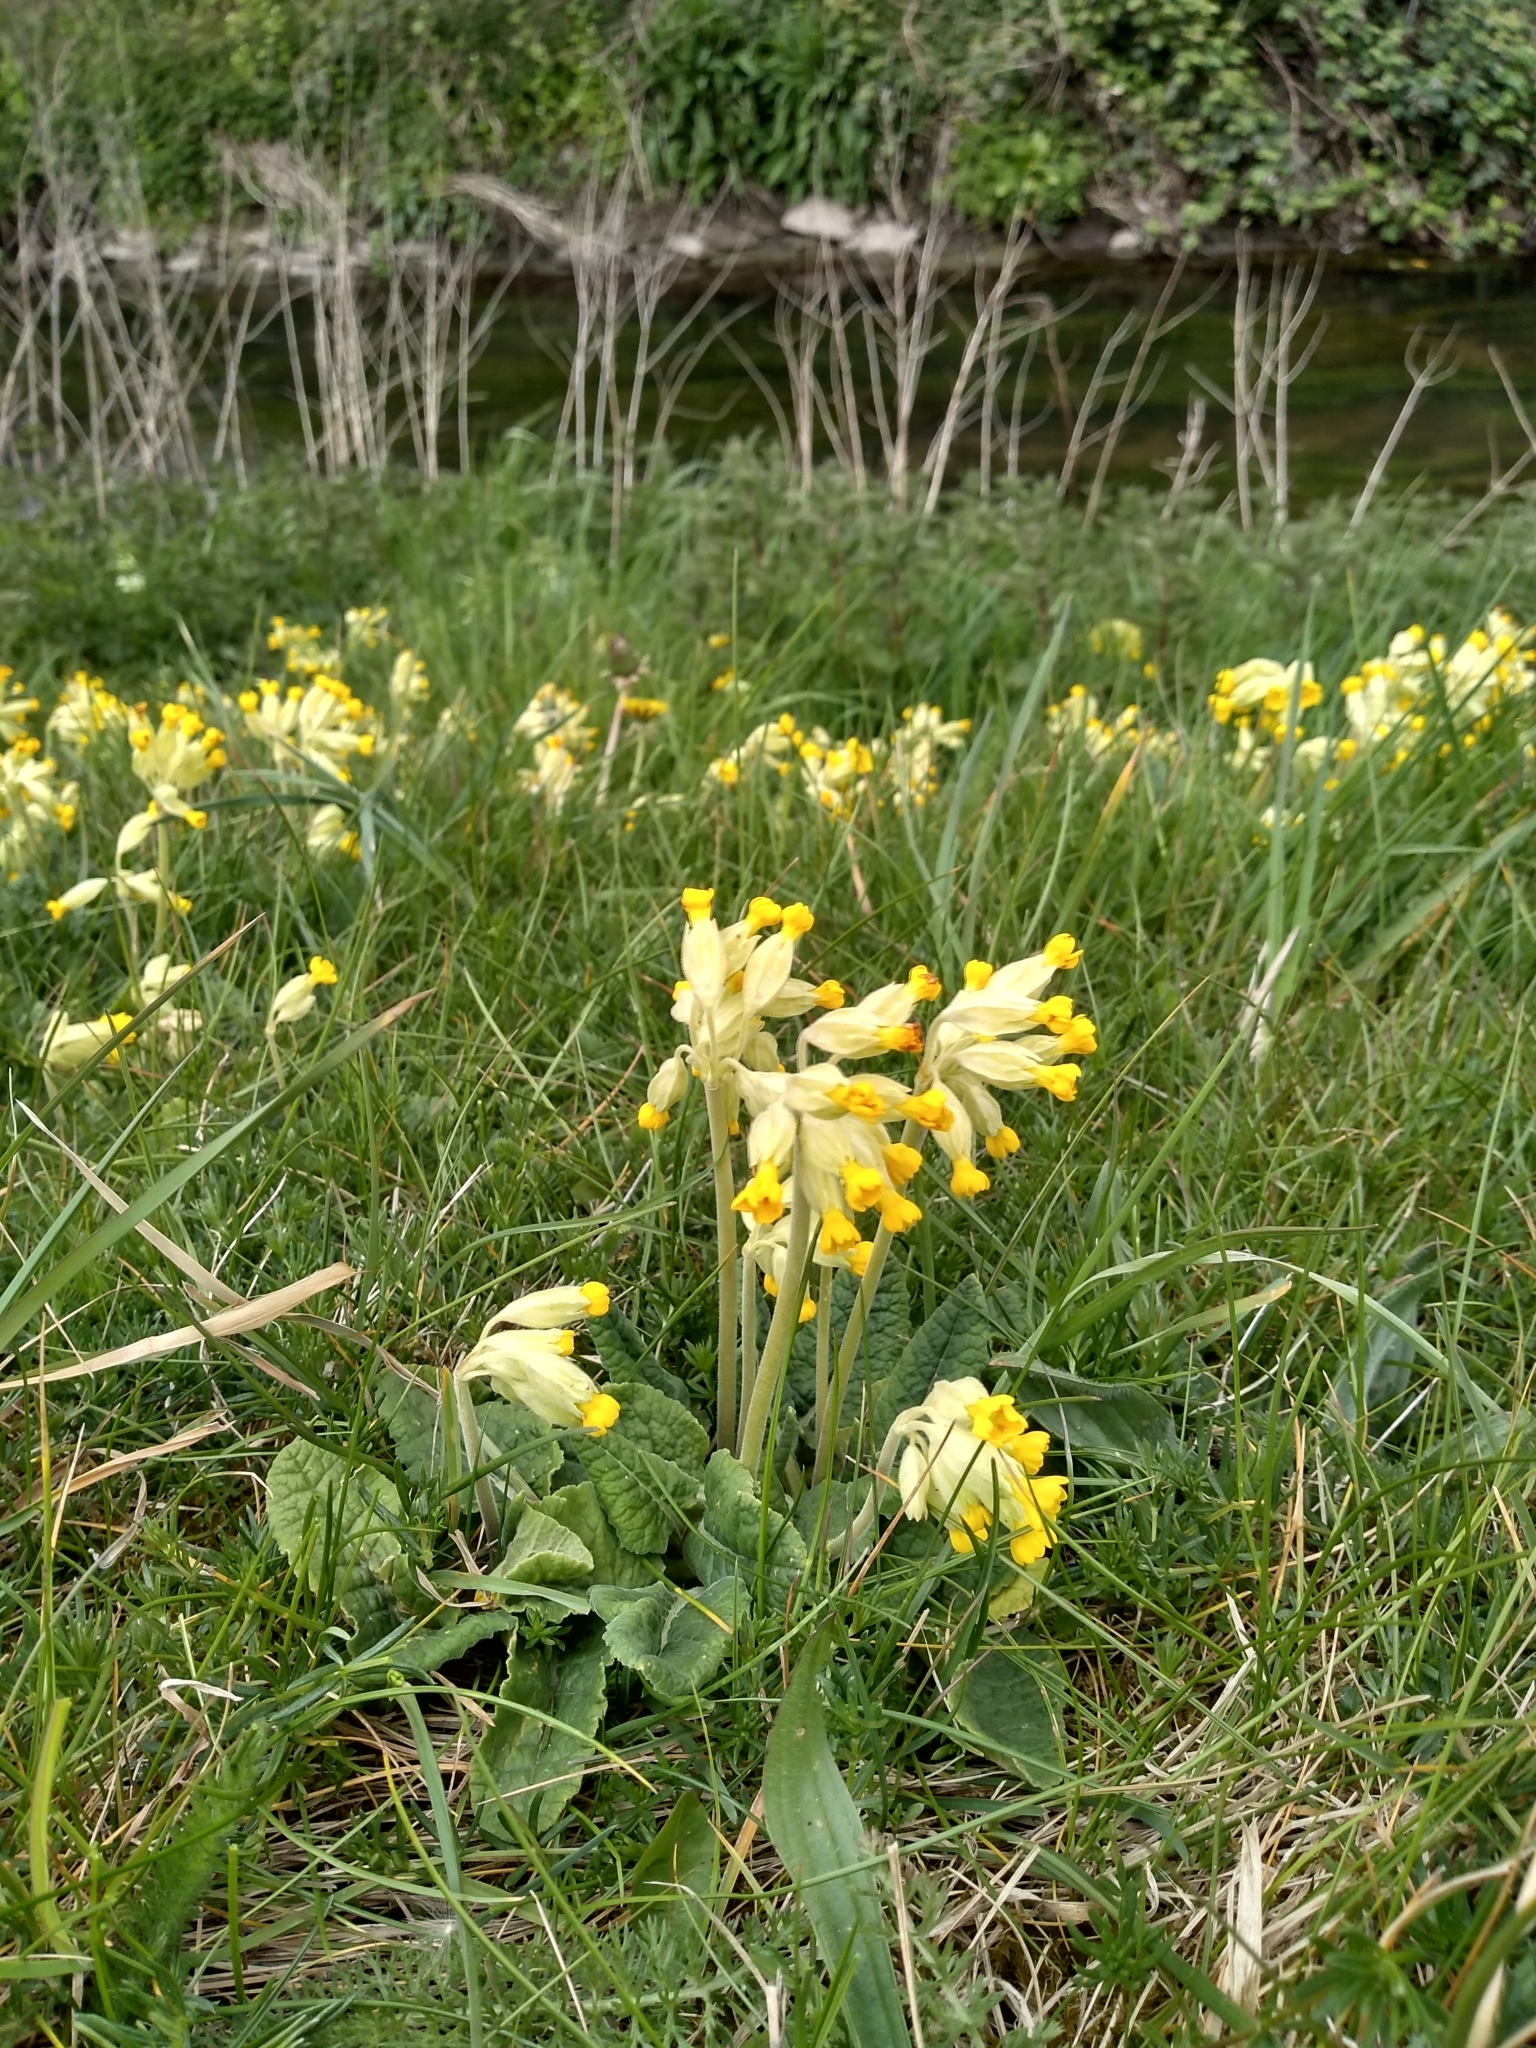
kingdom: Plantae
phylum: Tracheophyta
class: Magnoliopsida
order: Ericales
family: Primulaceae
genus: Primula
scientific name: Primula veris
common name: Cowslip
